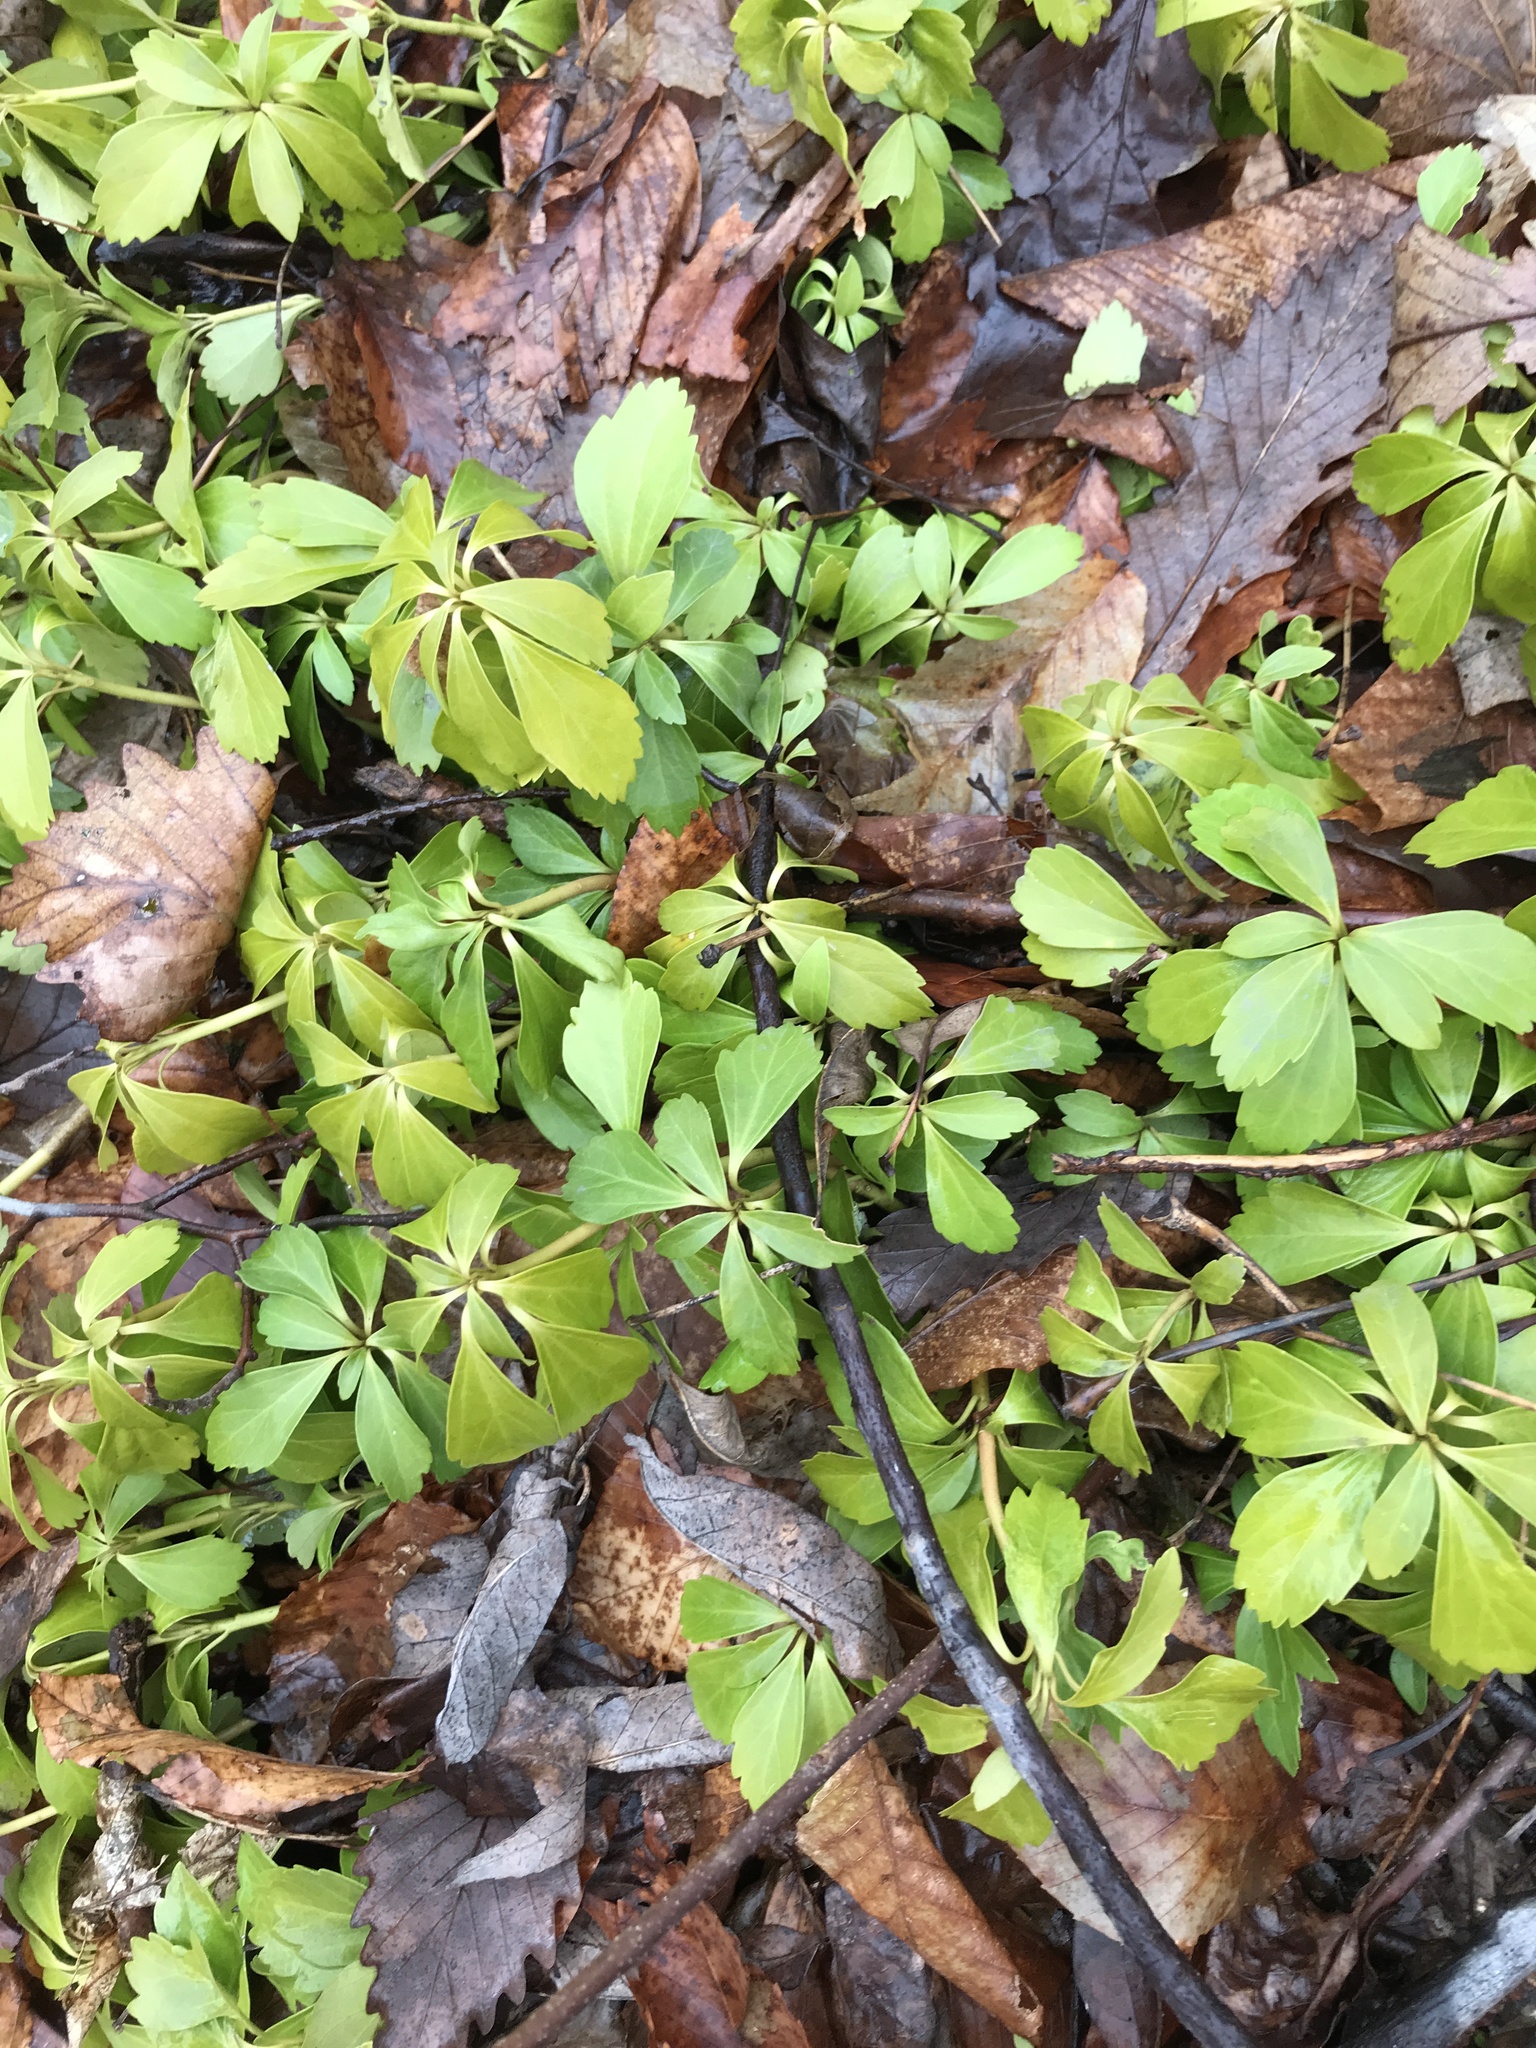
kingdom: Plantae
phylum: Tracheophyta
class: Magnoliopsida
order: Buxales
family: Buxaceae
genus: Pachysandra
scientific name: Pachysandra terminalis
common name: Japanese pachysandra
